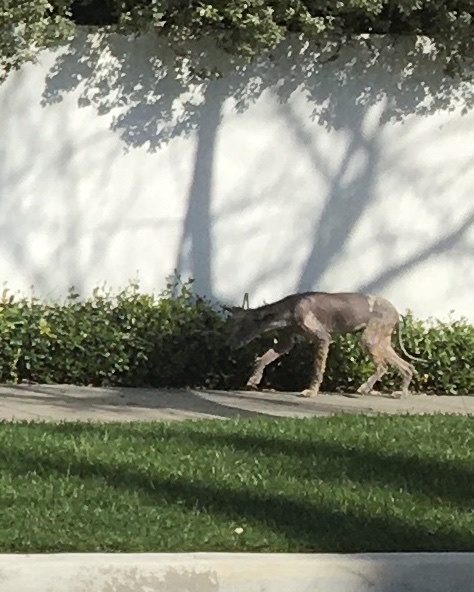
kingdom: Animalia
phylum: Chordata
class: Mammalia
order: Carnivora
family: Canidae
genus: Canis
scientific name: Canis latrans
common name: Coyote
